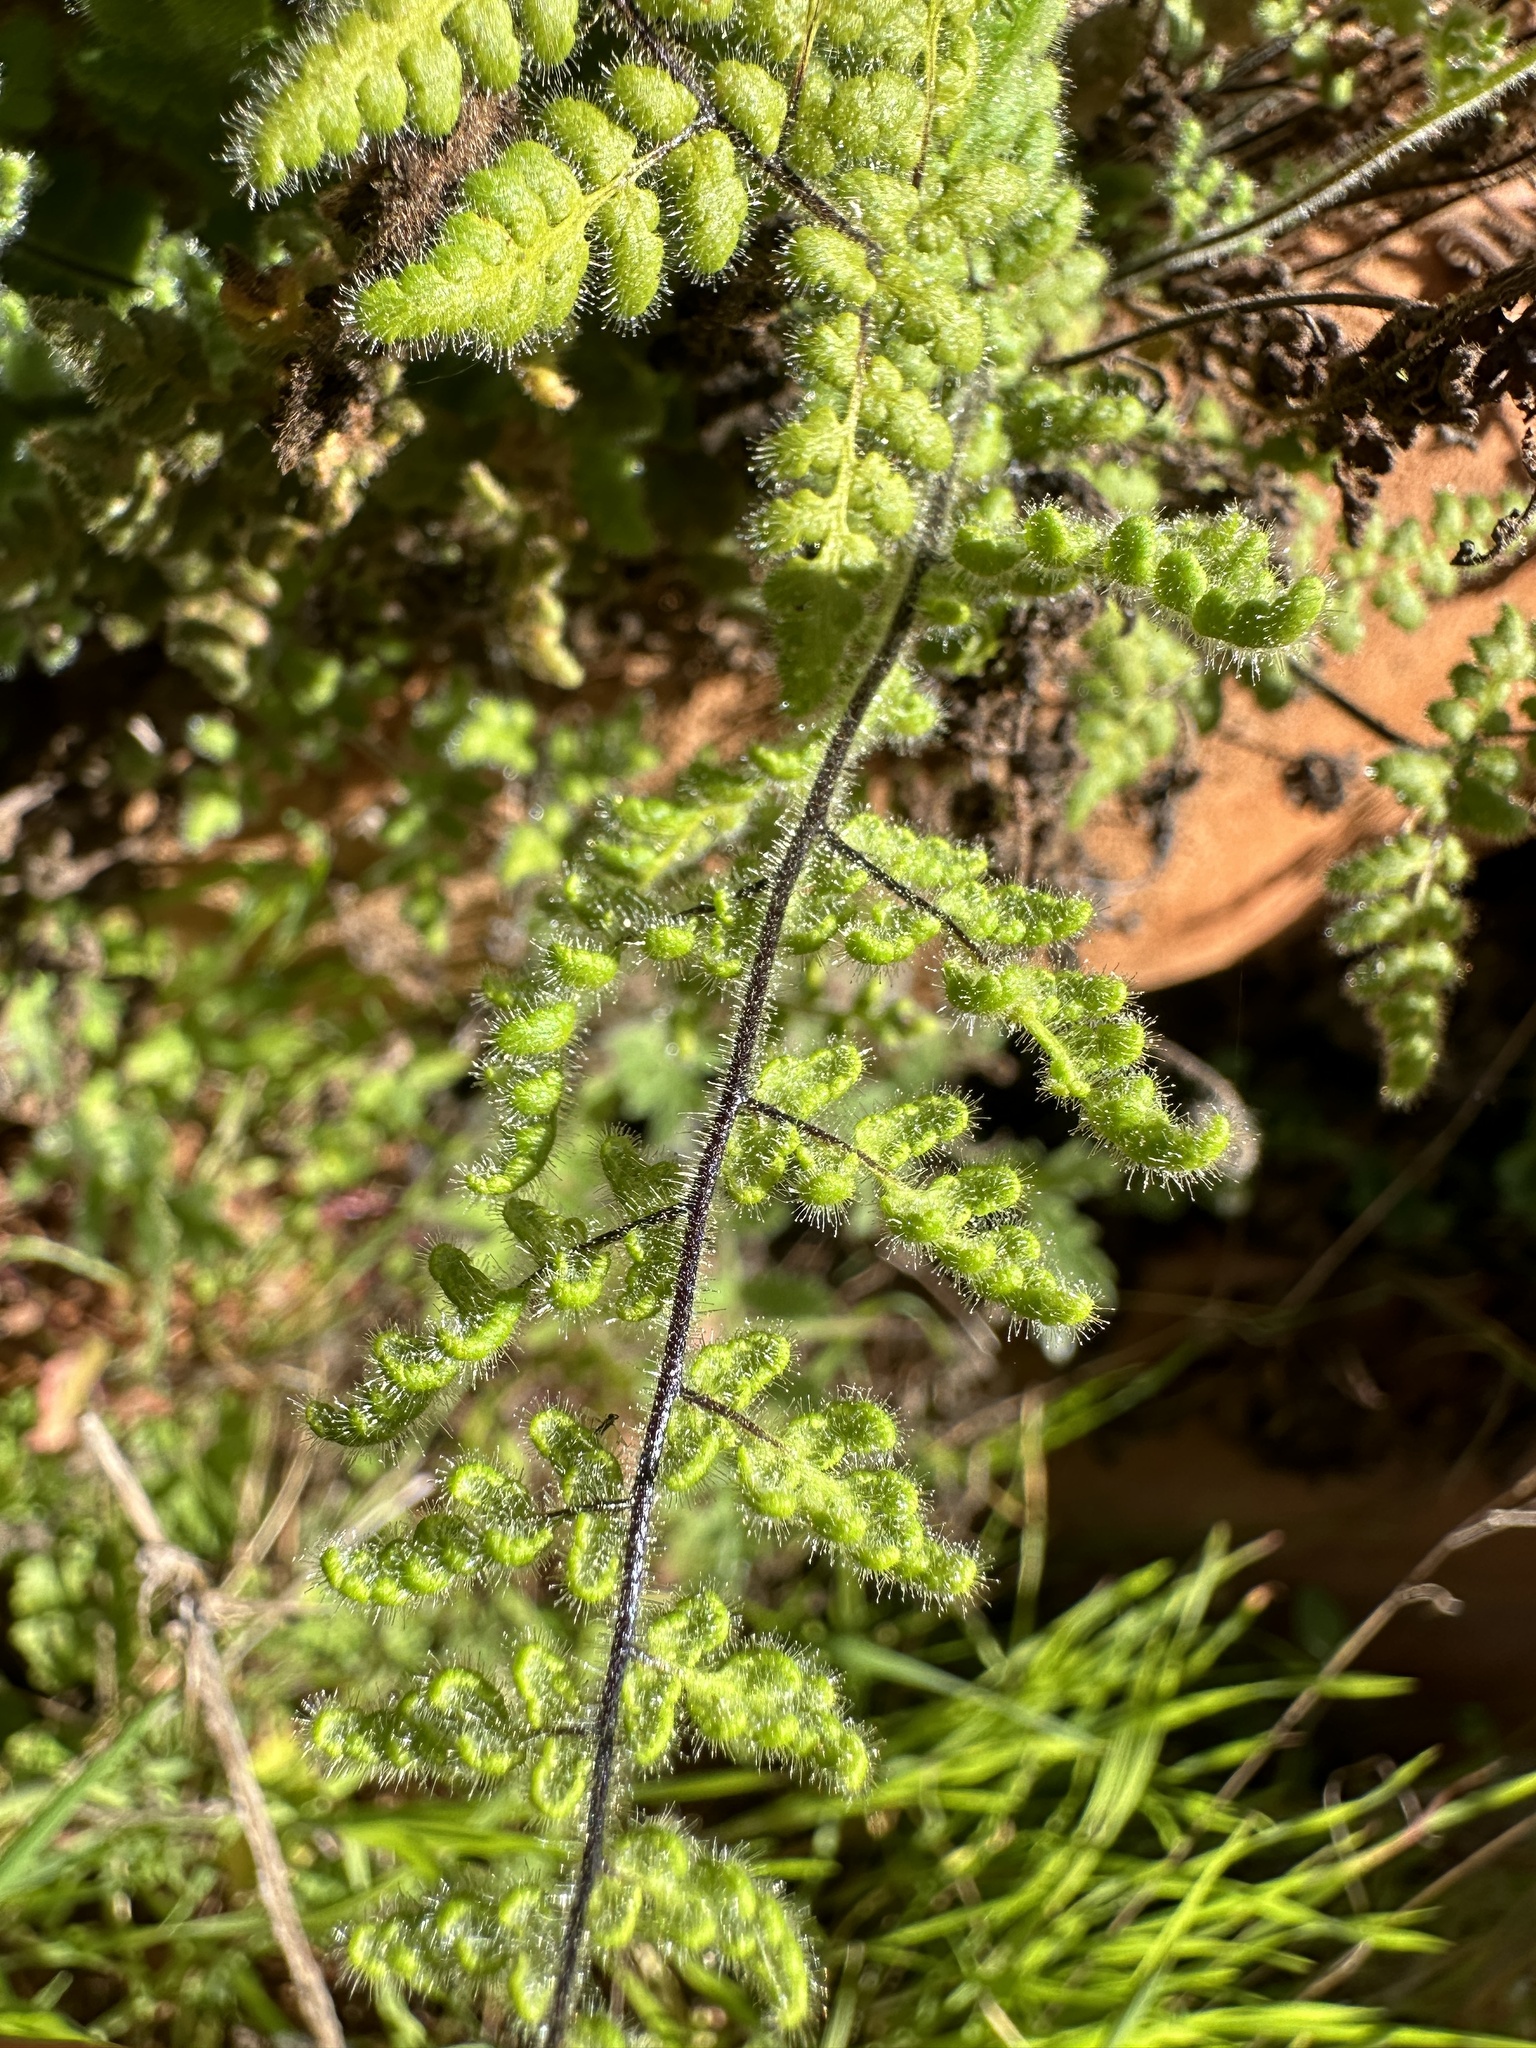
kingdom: Plantae
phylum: Tracheophyta
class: Polypodiopsida
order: Polypodiales
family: Pteridaceae
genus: Myriopteris
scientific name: Myriopteris cooperae
